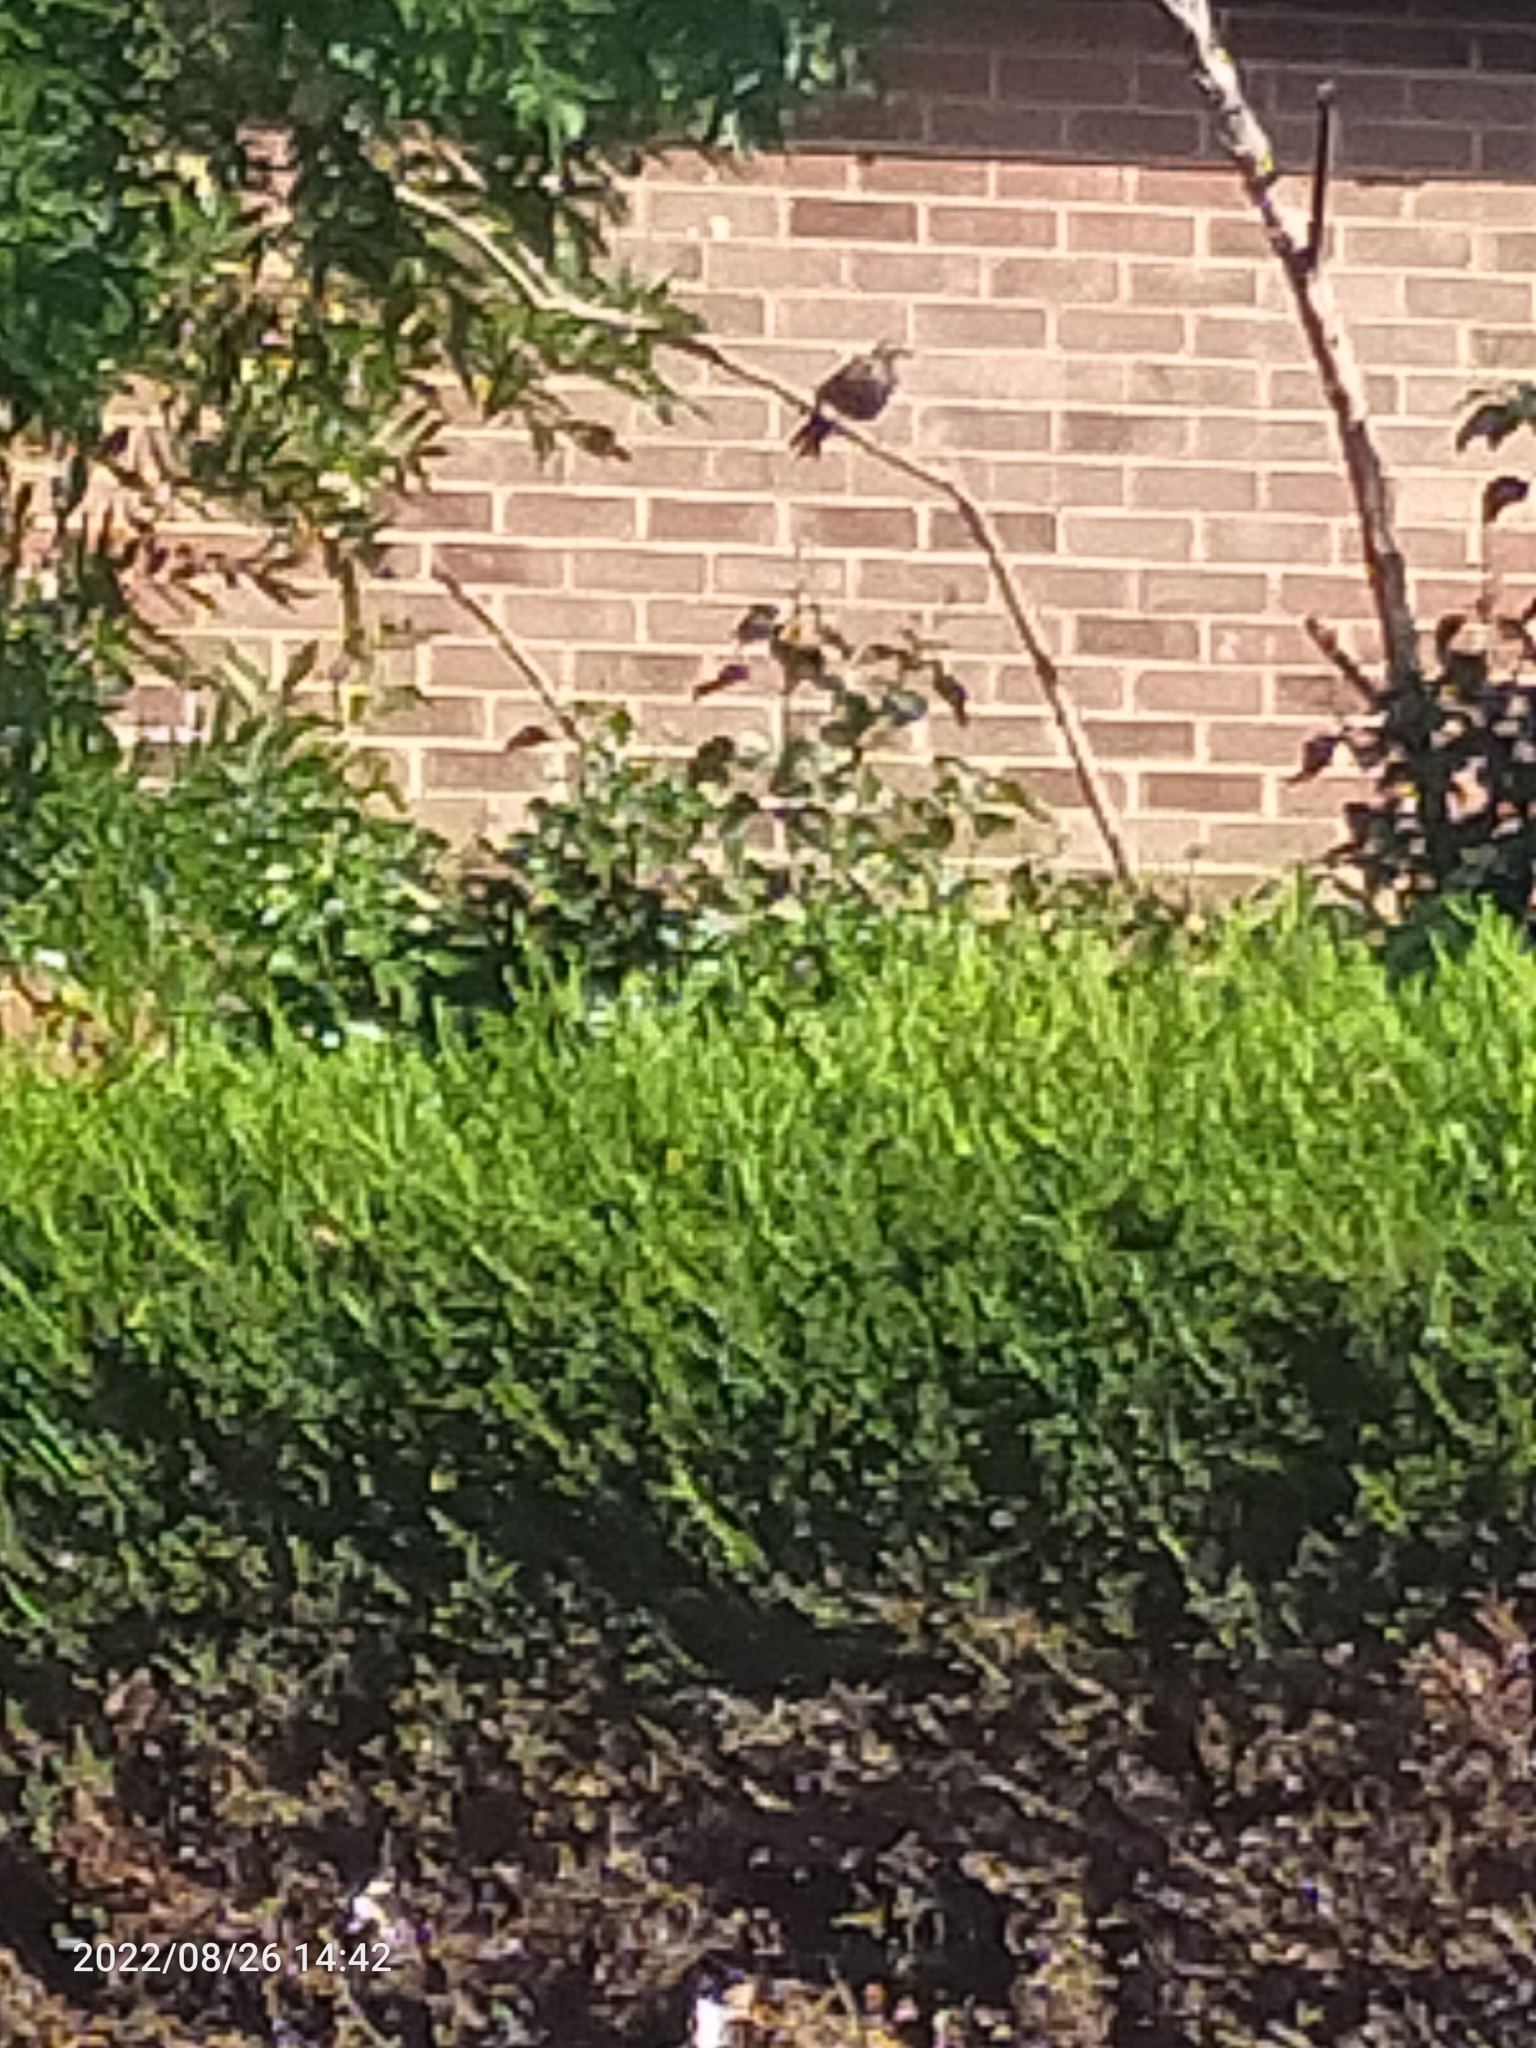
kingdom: Animalia
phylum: Chordata
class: Aves
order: Passeriformes
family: Sturnidae
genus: Sturnus
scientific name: Sturnus vulgaris
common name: Common starling
